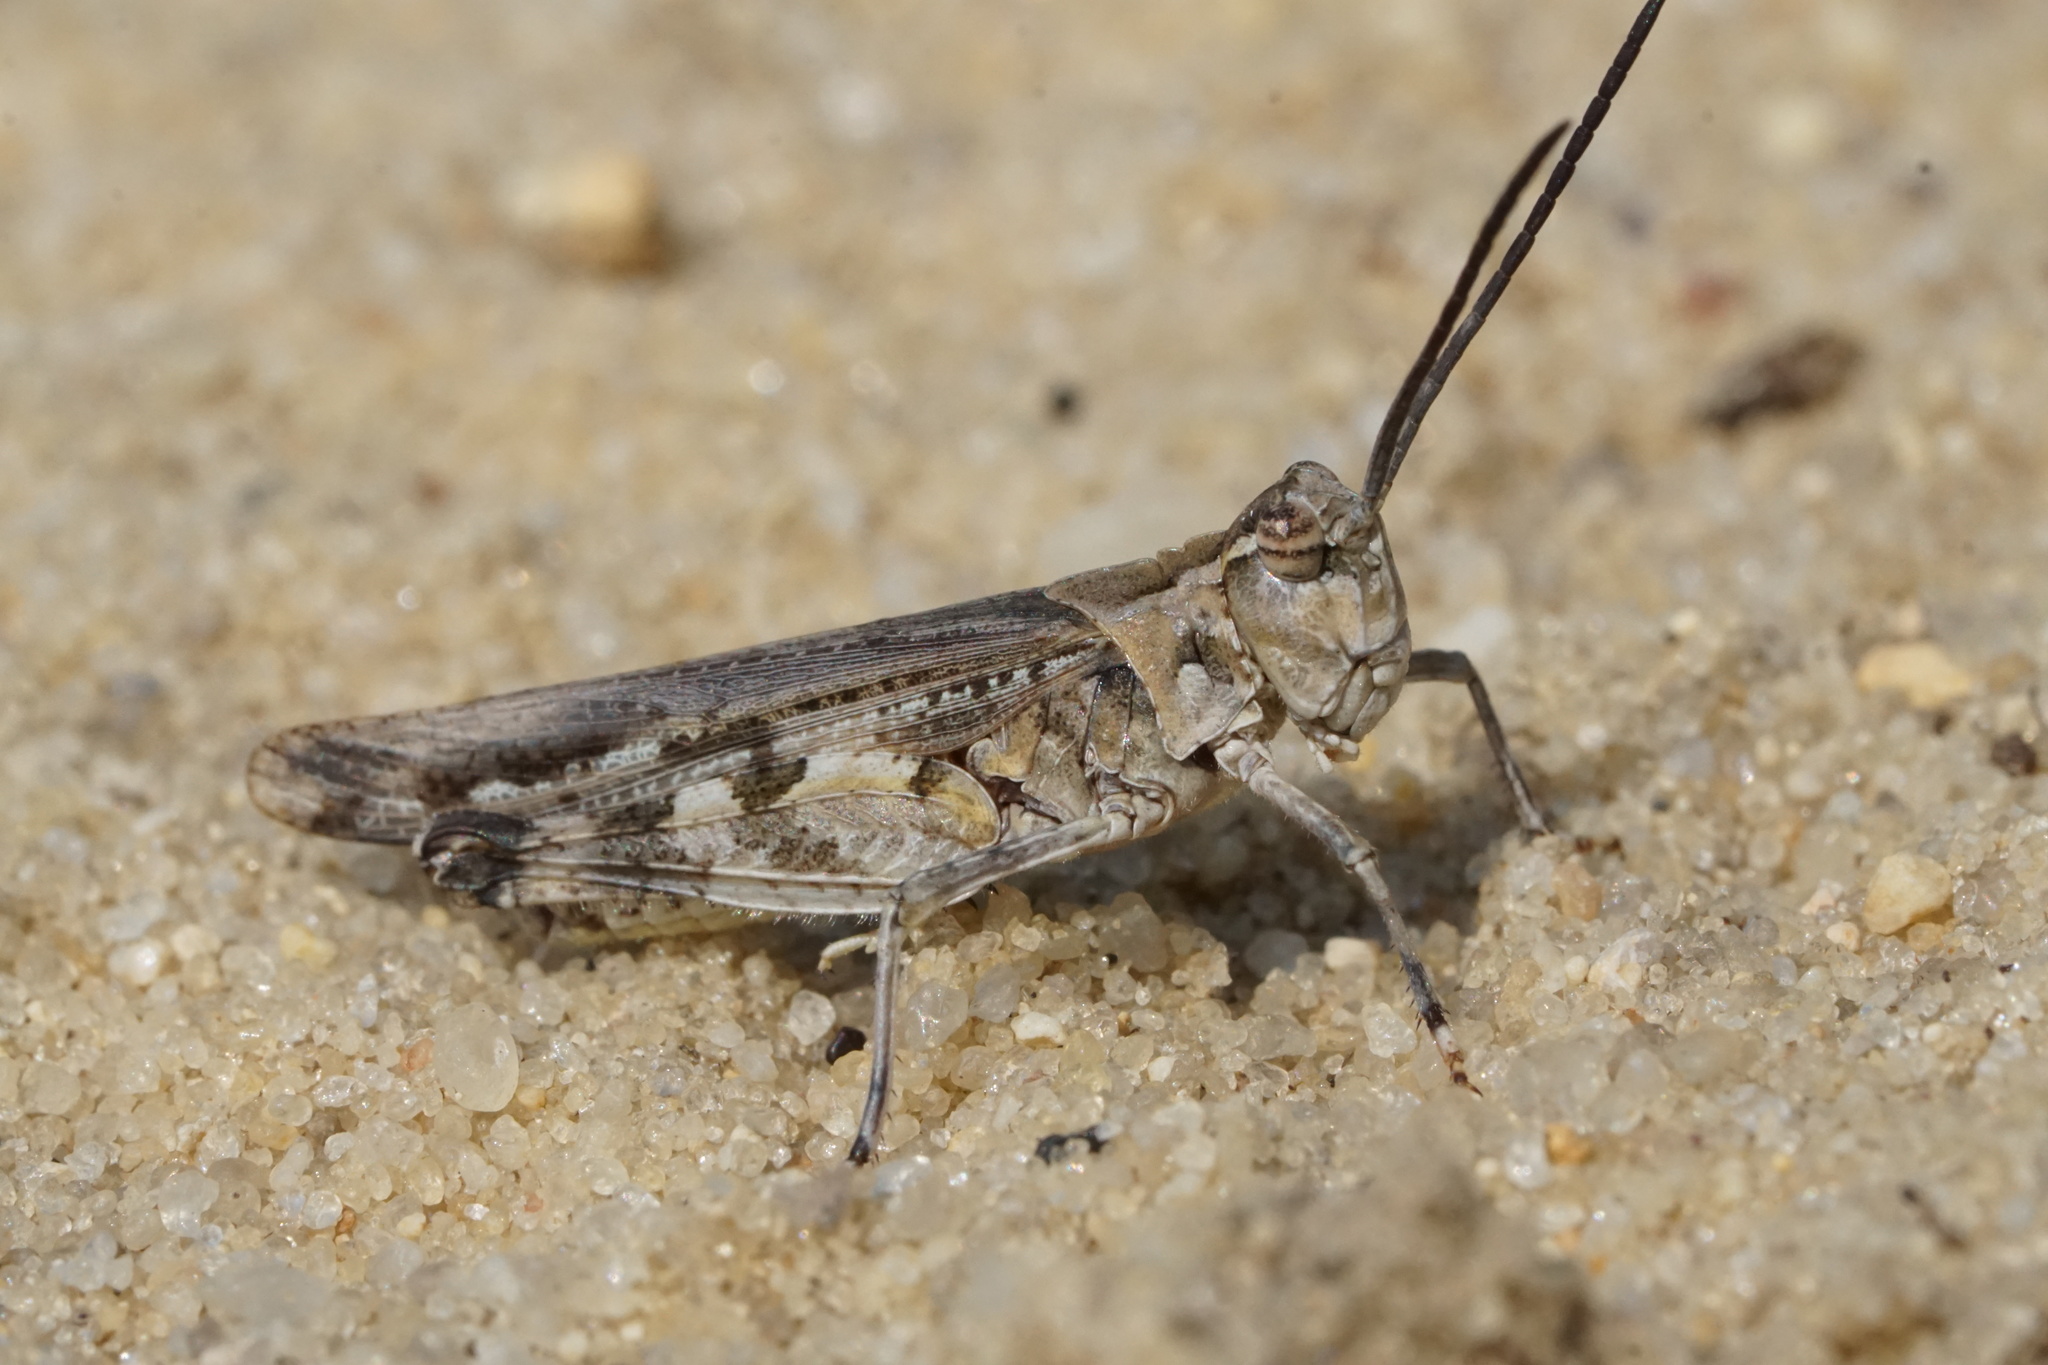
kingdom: Animalia
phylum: Arthropoda
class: Insecta
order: Orthoptera
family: Acrididae
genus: Psinidia
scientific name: Psinidia fenestralis
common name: Long-horned locust
